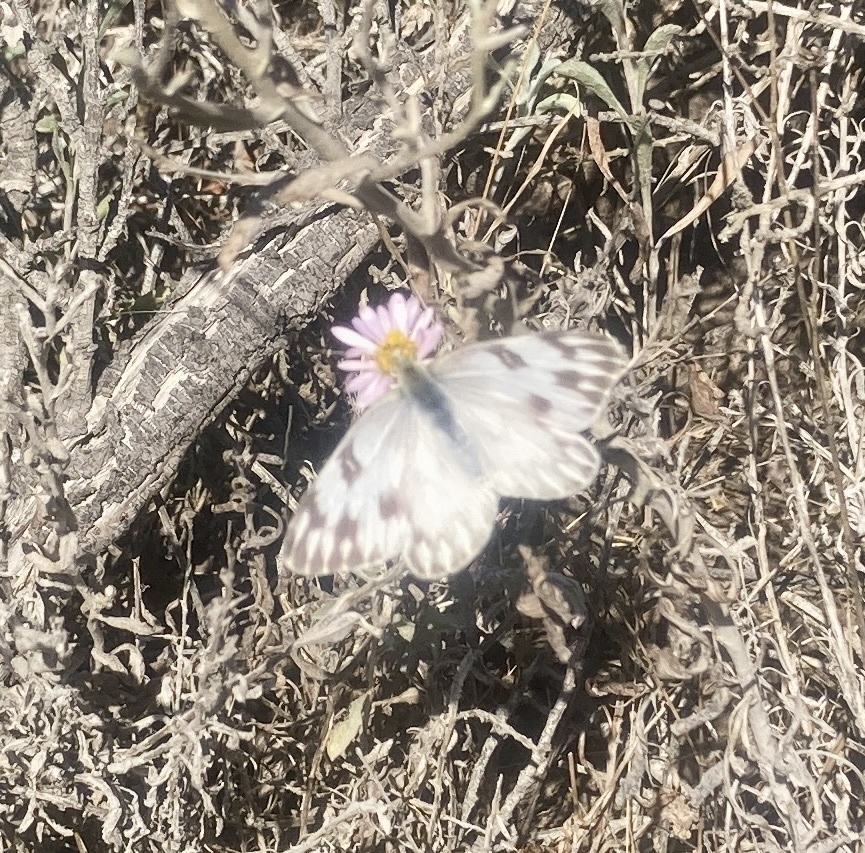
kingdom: Animalia
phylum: Arthropoda
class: Insecta
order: Lepidoptera
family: Pieridae
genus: Pontia
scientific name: Pontia protodice
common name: Checkered white
